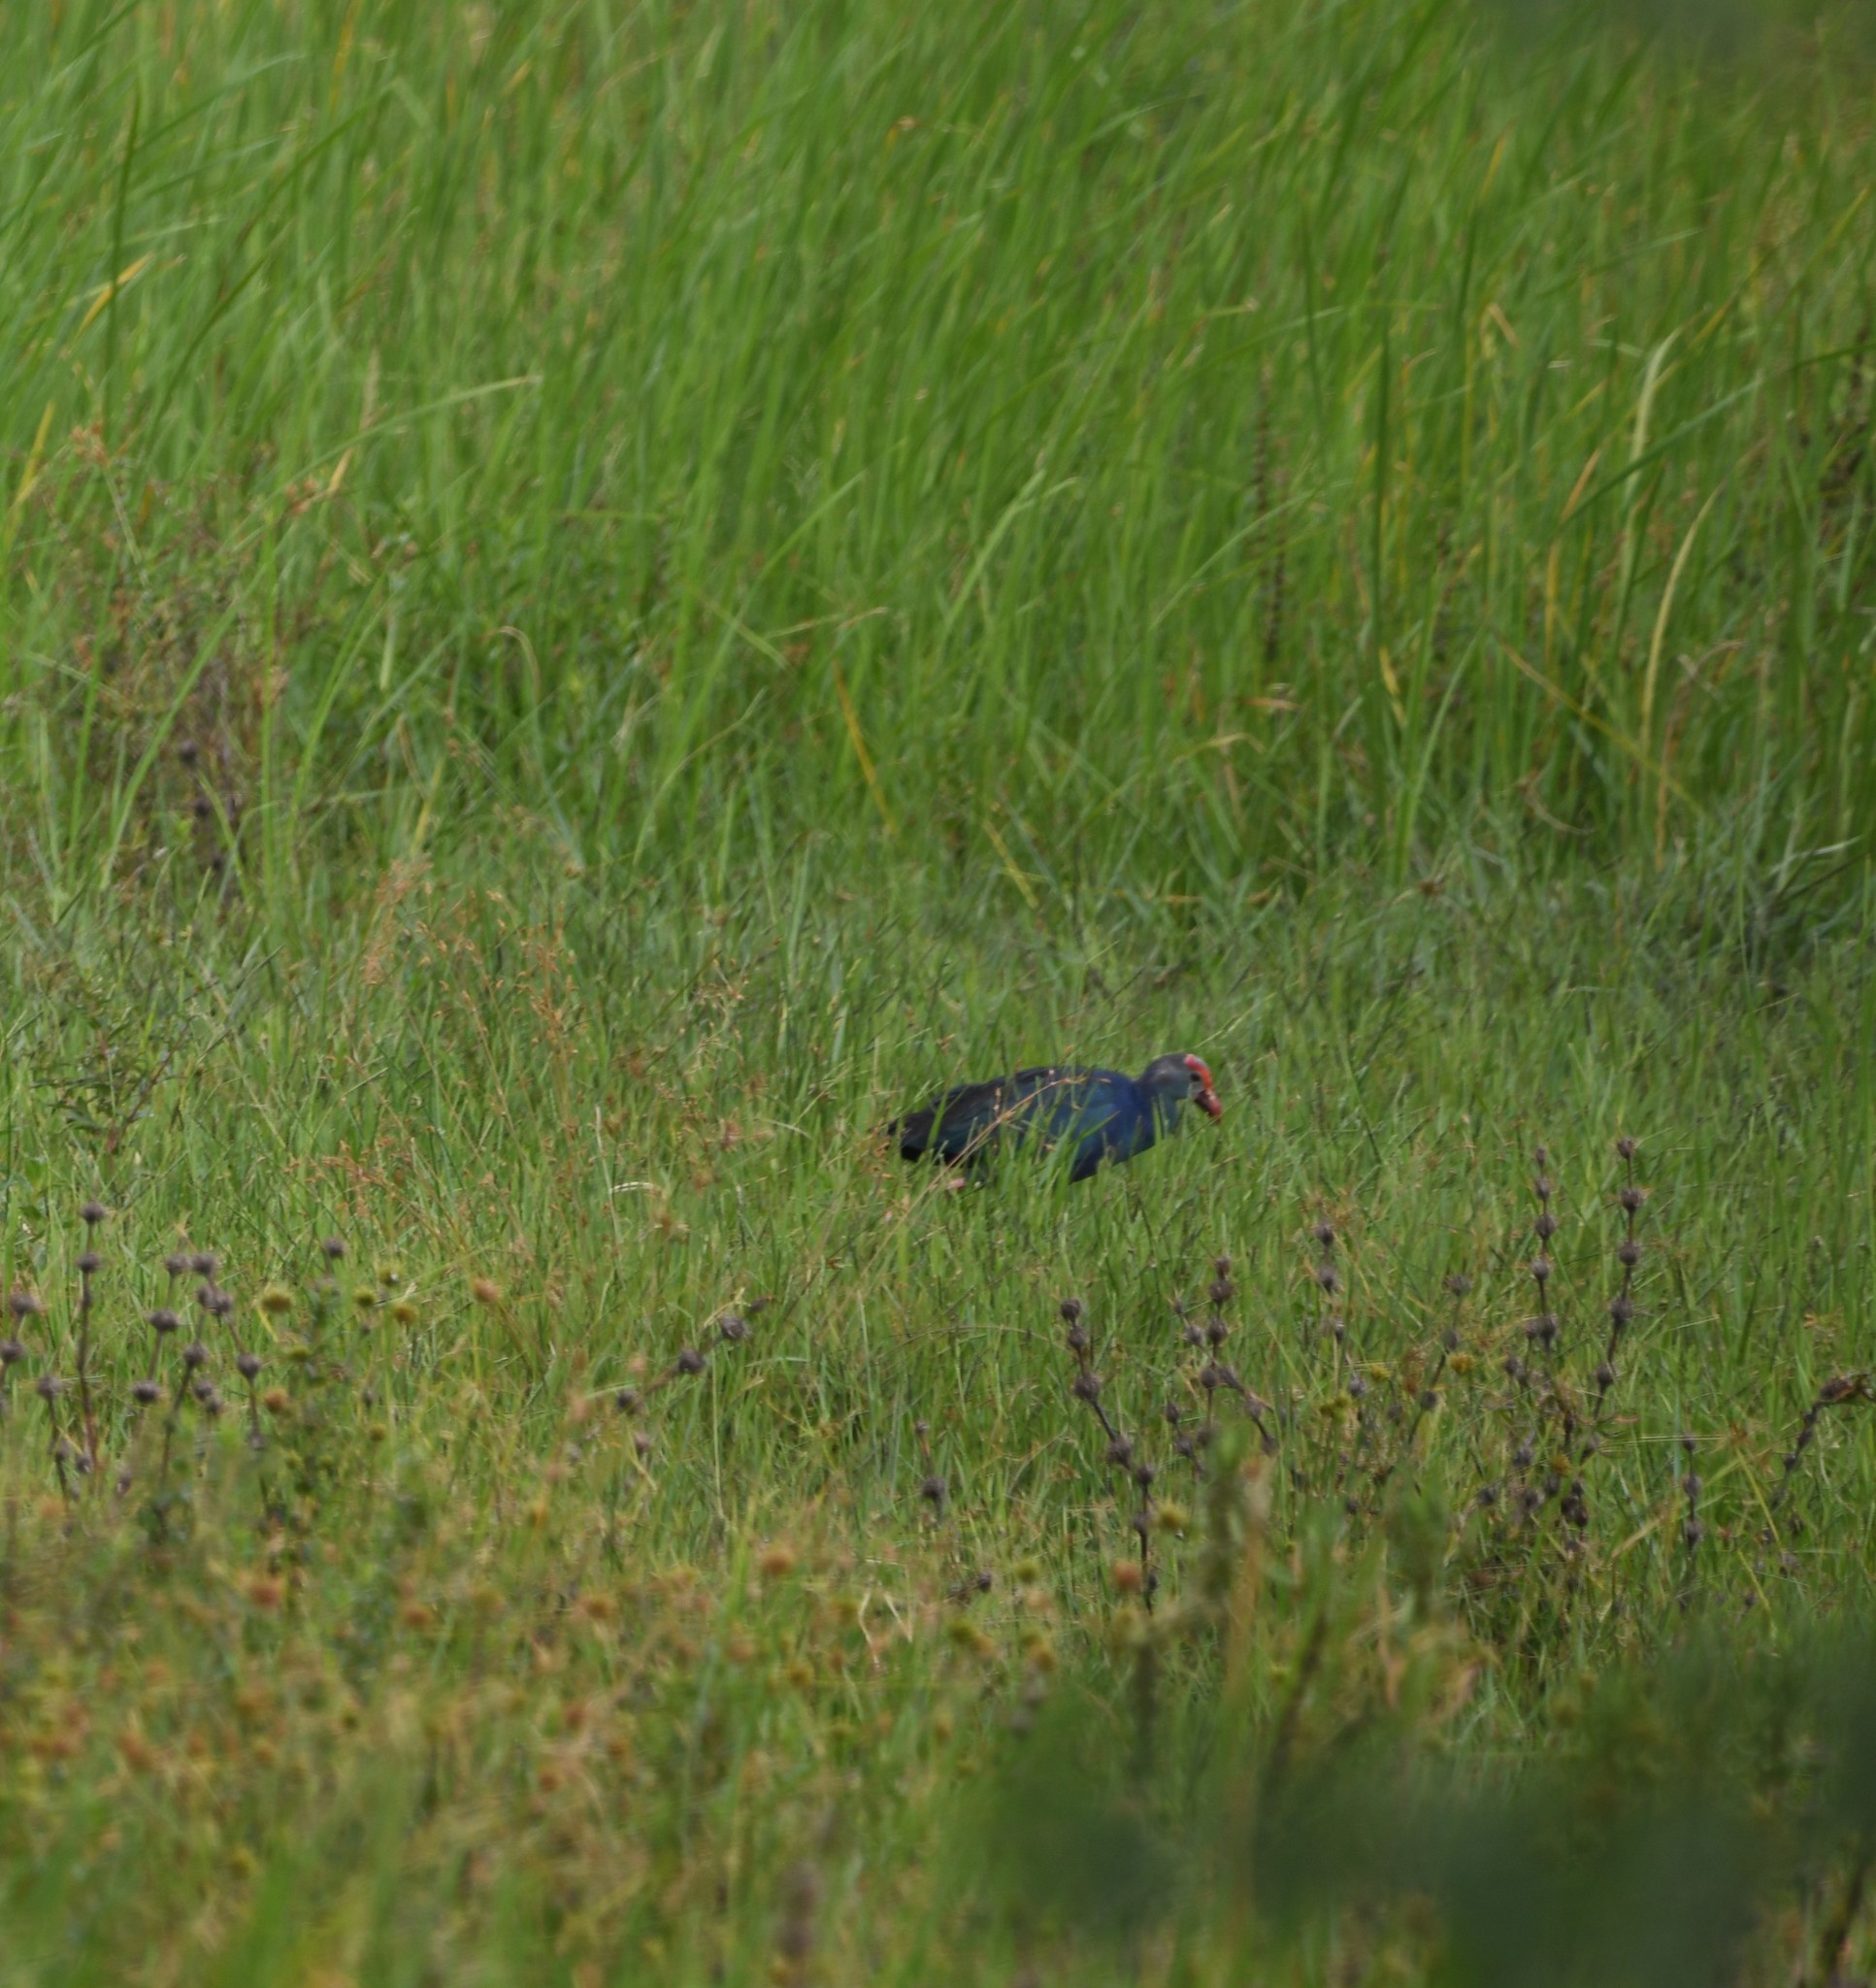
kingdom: Animalia
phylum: Chordata
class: Aves
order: Gruiformes
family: Rallidae
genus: Porphyrio
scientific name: Porphyrio porphyrio
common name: Purple swamphen
